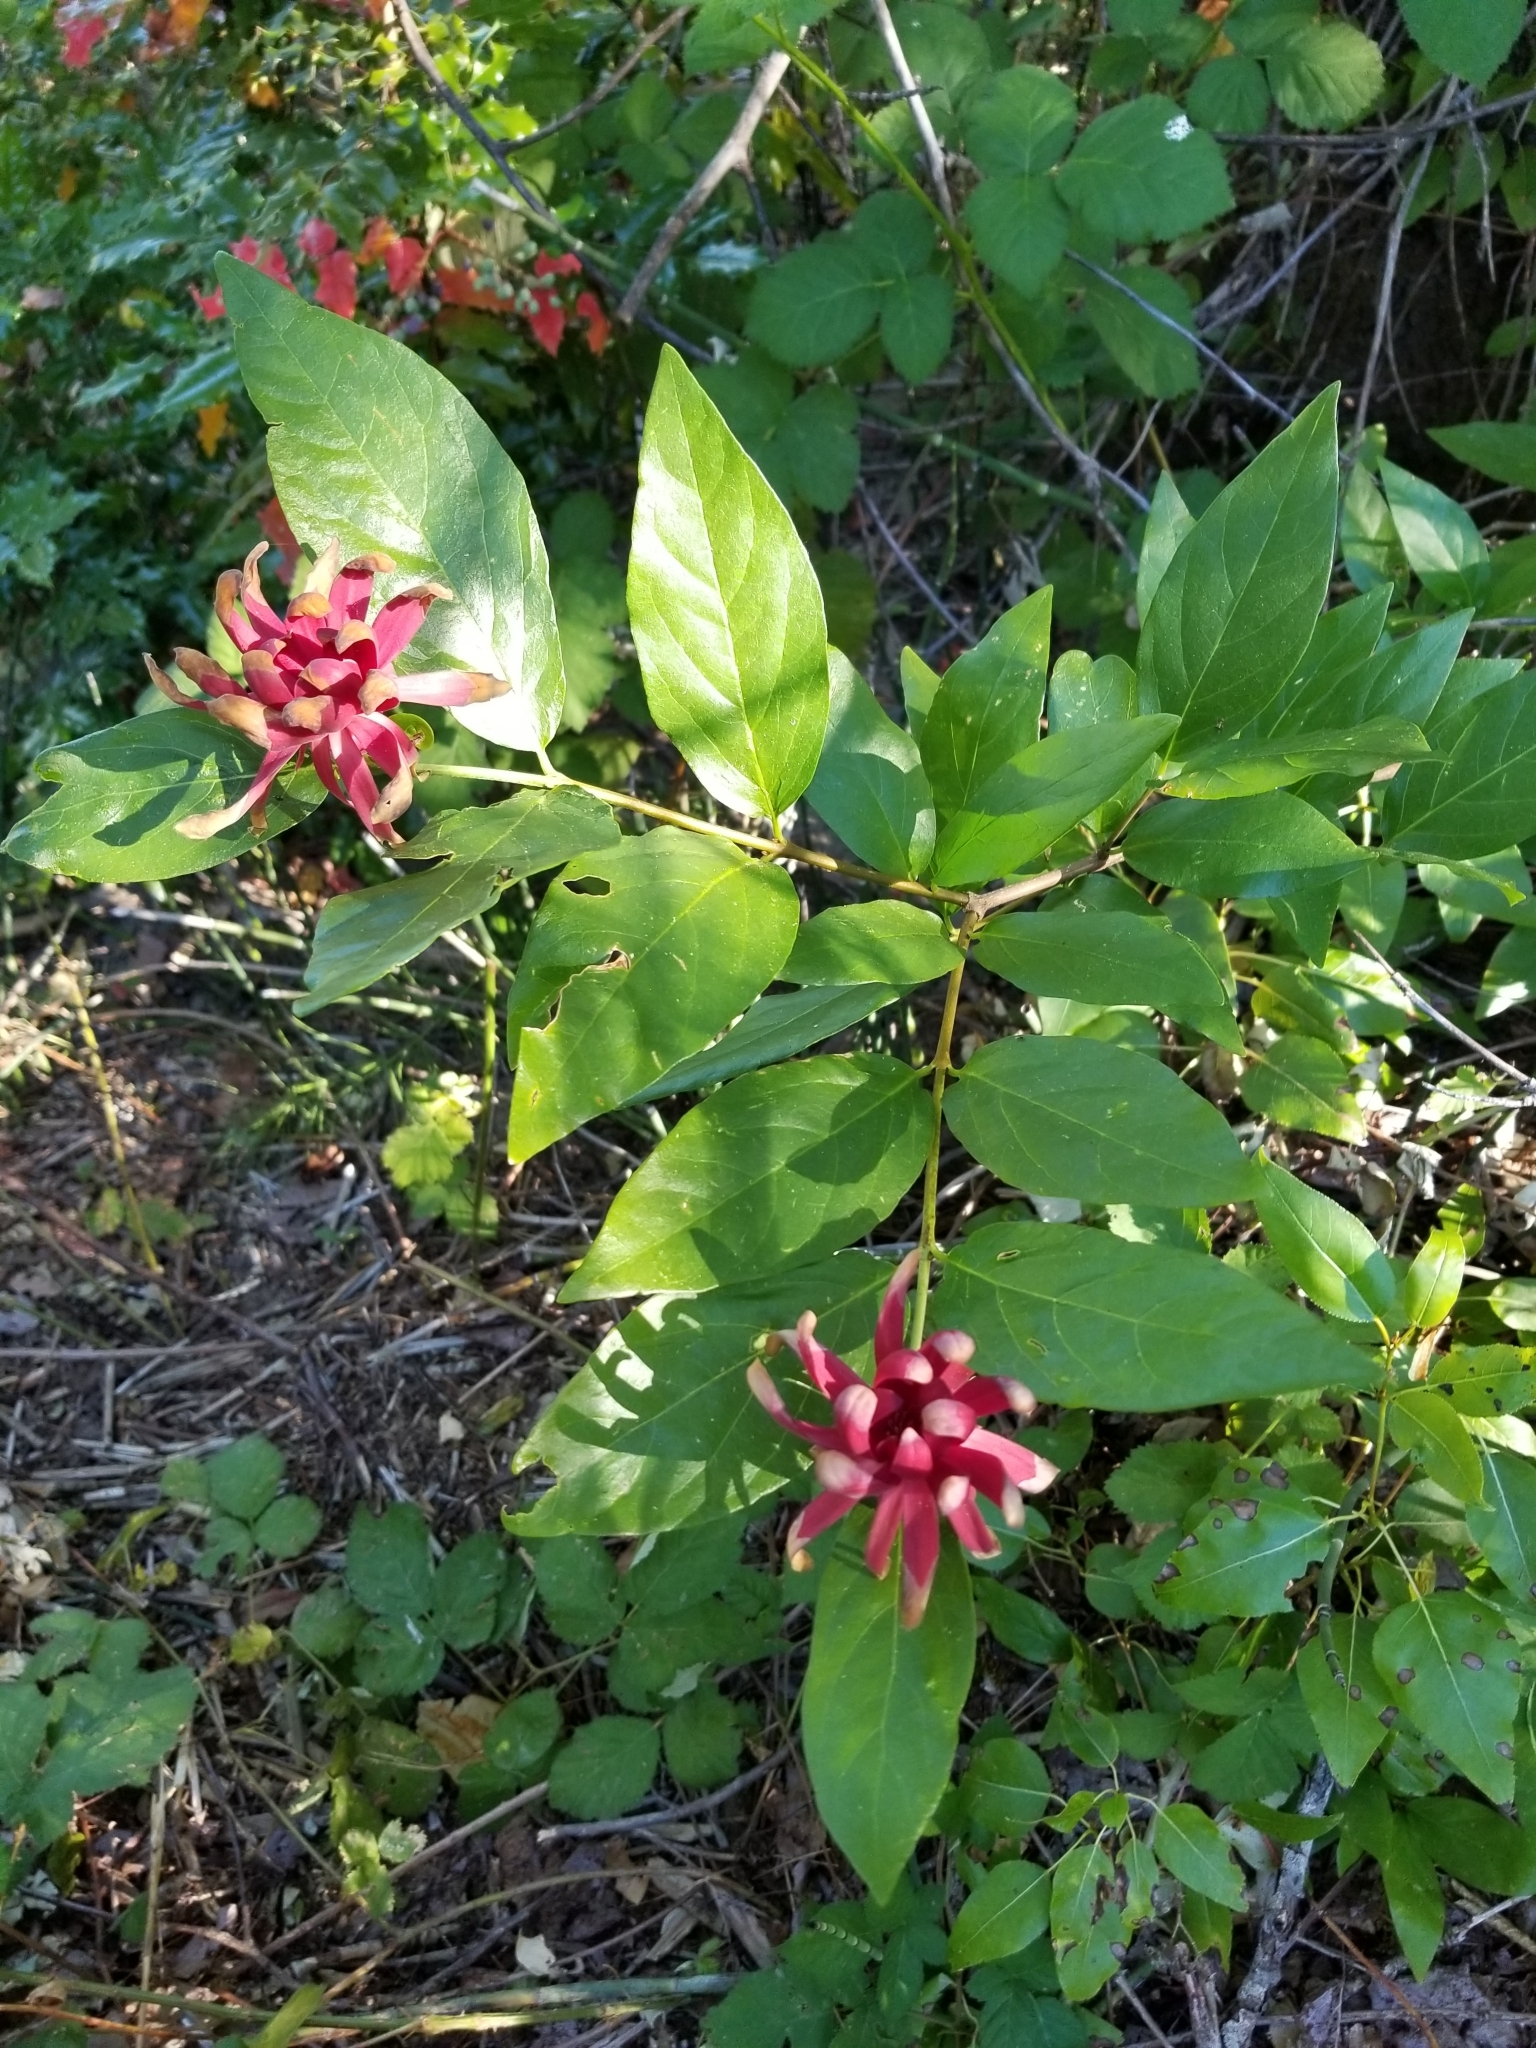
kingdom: Plantae
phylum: Tracheophyta
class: Magnoliopsida
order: Laurales
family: Calycanthaceae
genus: Calycanthus
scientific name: Calycanthus occidentalis
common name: California spicebush
